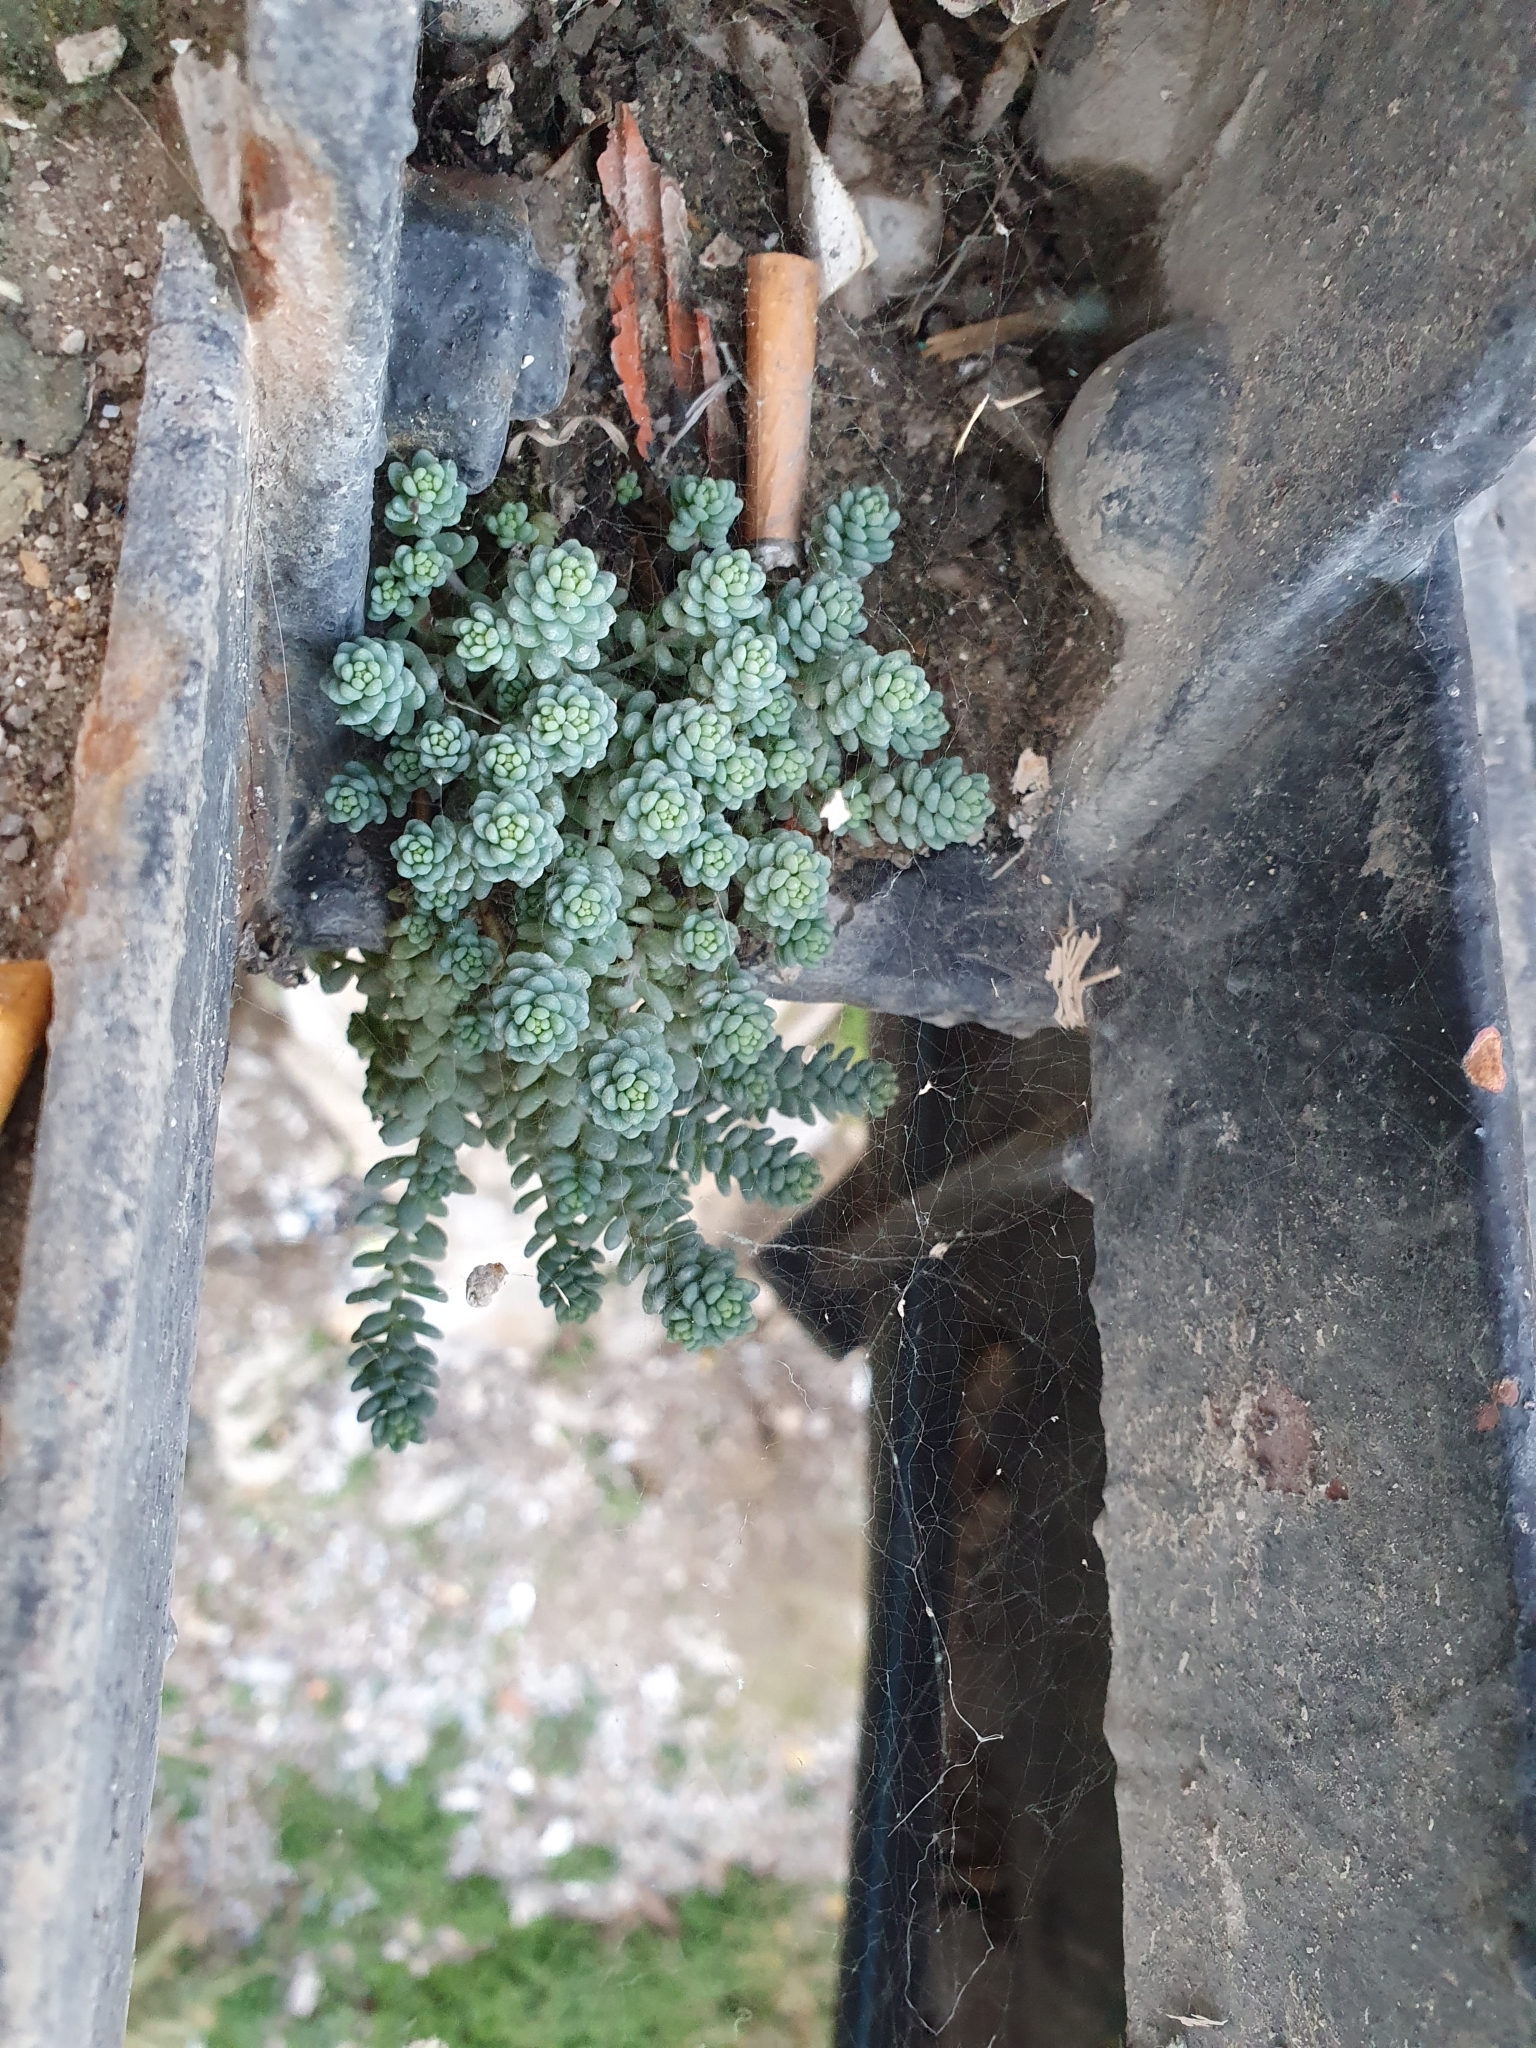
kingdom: Plantae
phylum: Tracheophyta
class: Magnoliopsida
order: Saxifragales
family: Crassulaceae
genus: Sedum
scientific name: Sedum dasyphyllum
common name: Thick-leaf stonecrop
